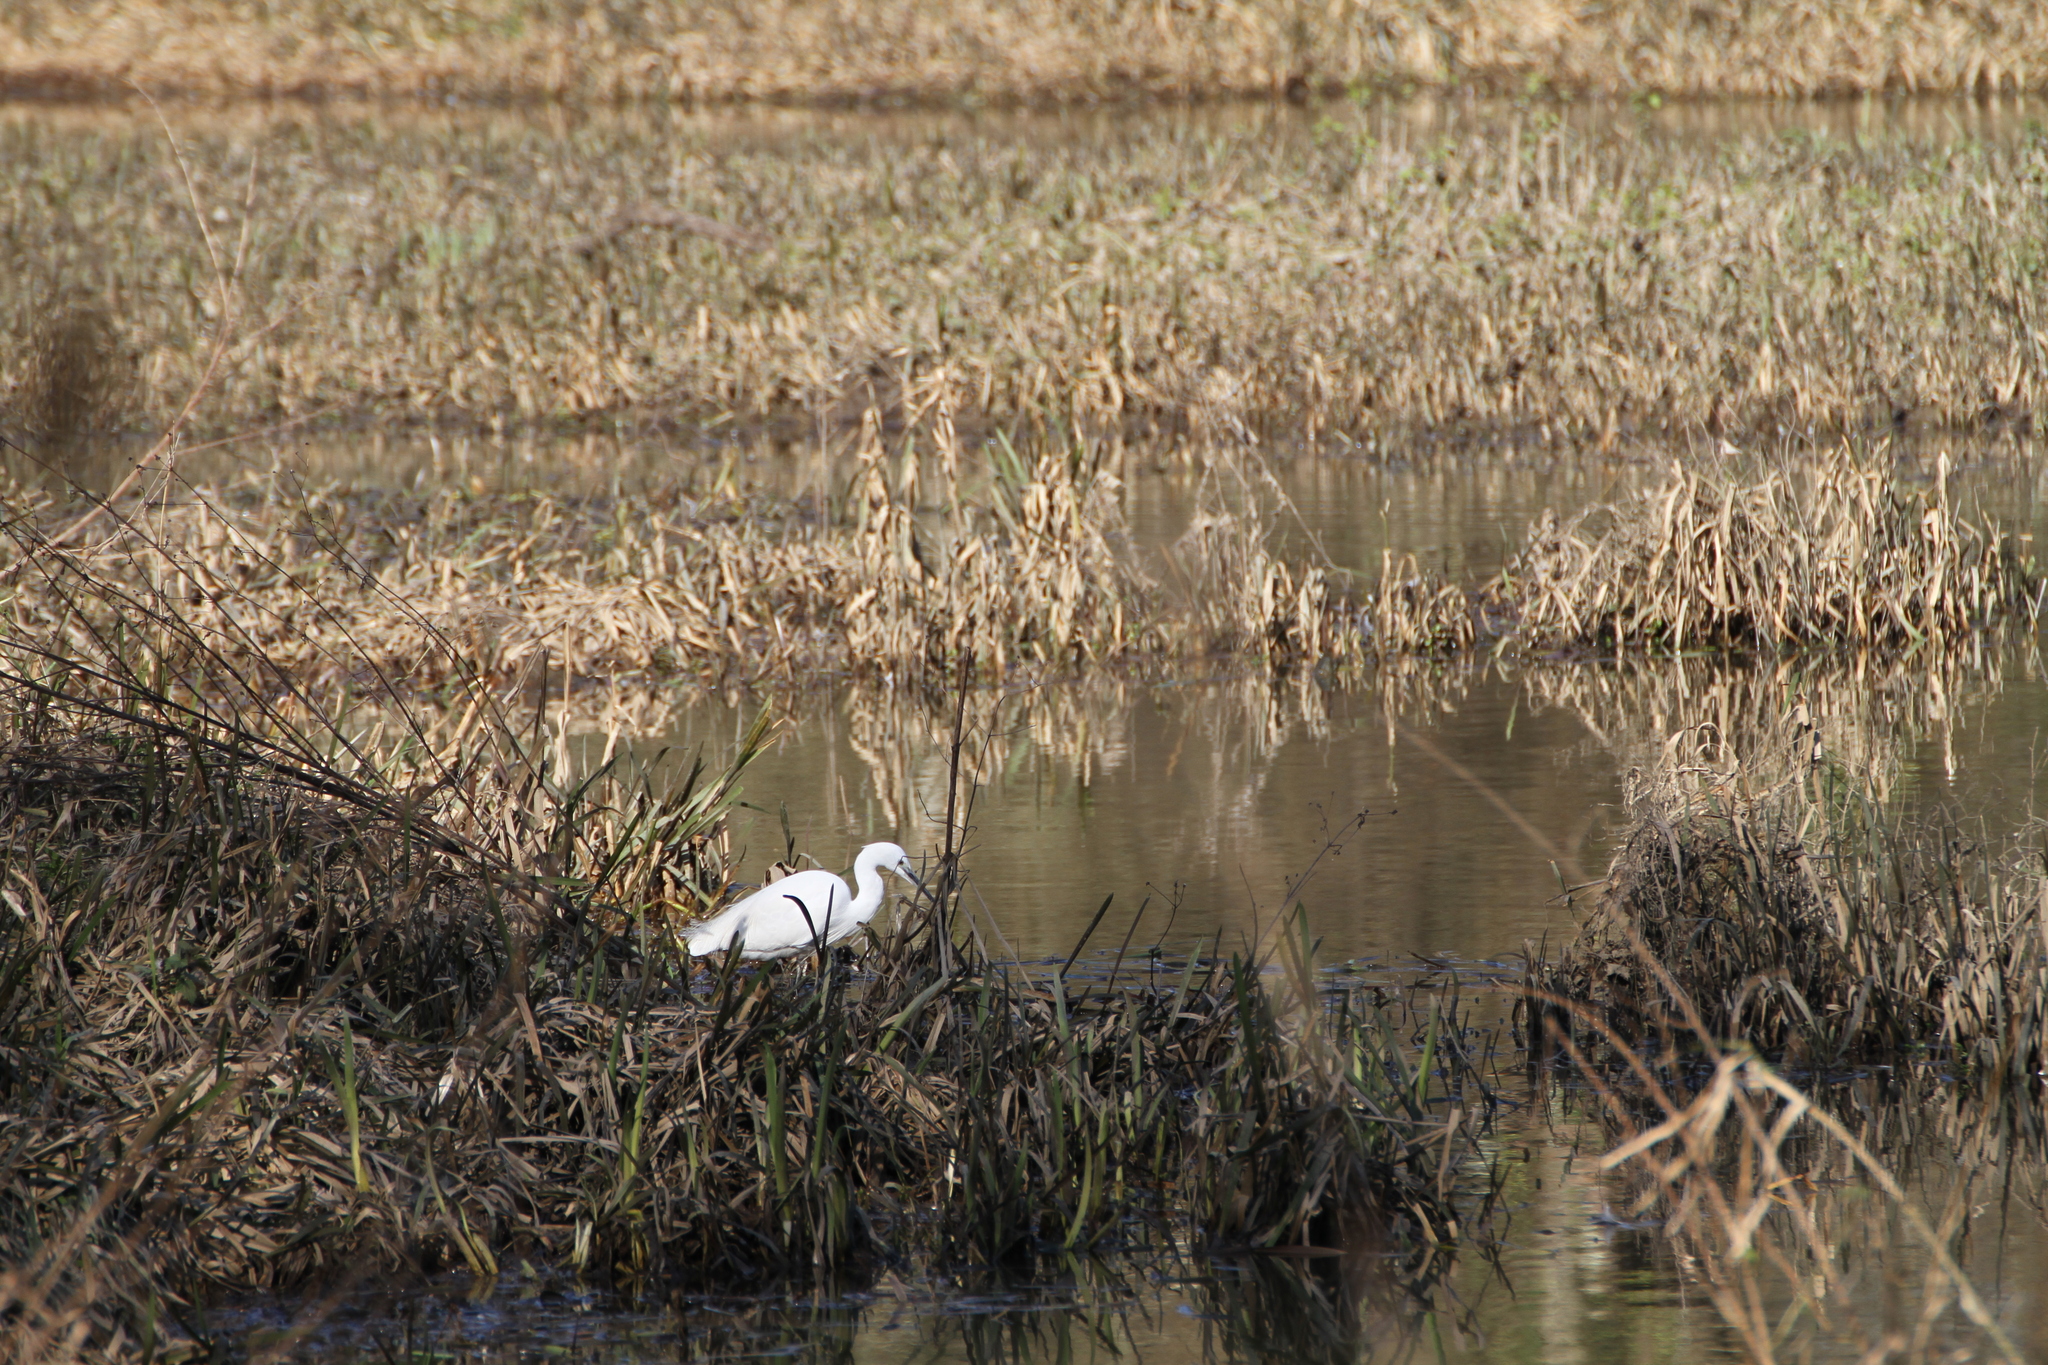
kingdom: Animalia
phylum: Chordata
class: Aves
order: Pelecaniformes
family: Ardeidae
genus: Egretta
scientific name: Egretta garzetta
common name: Little egret
